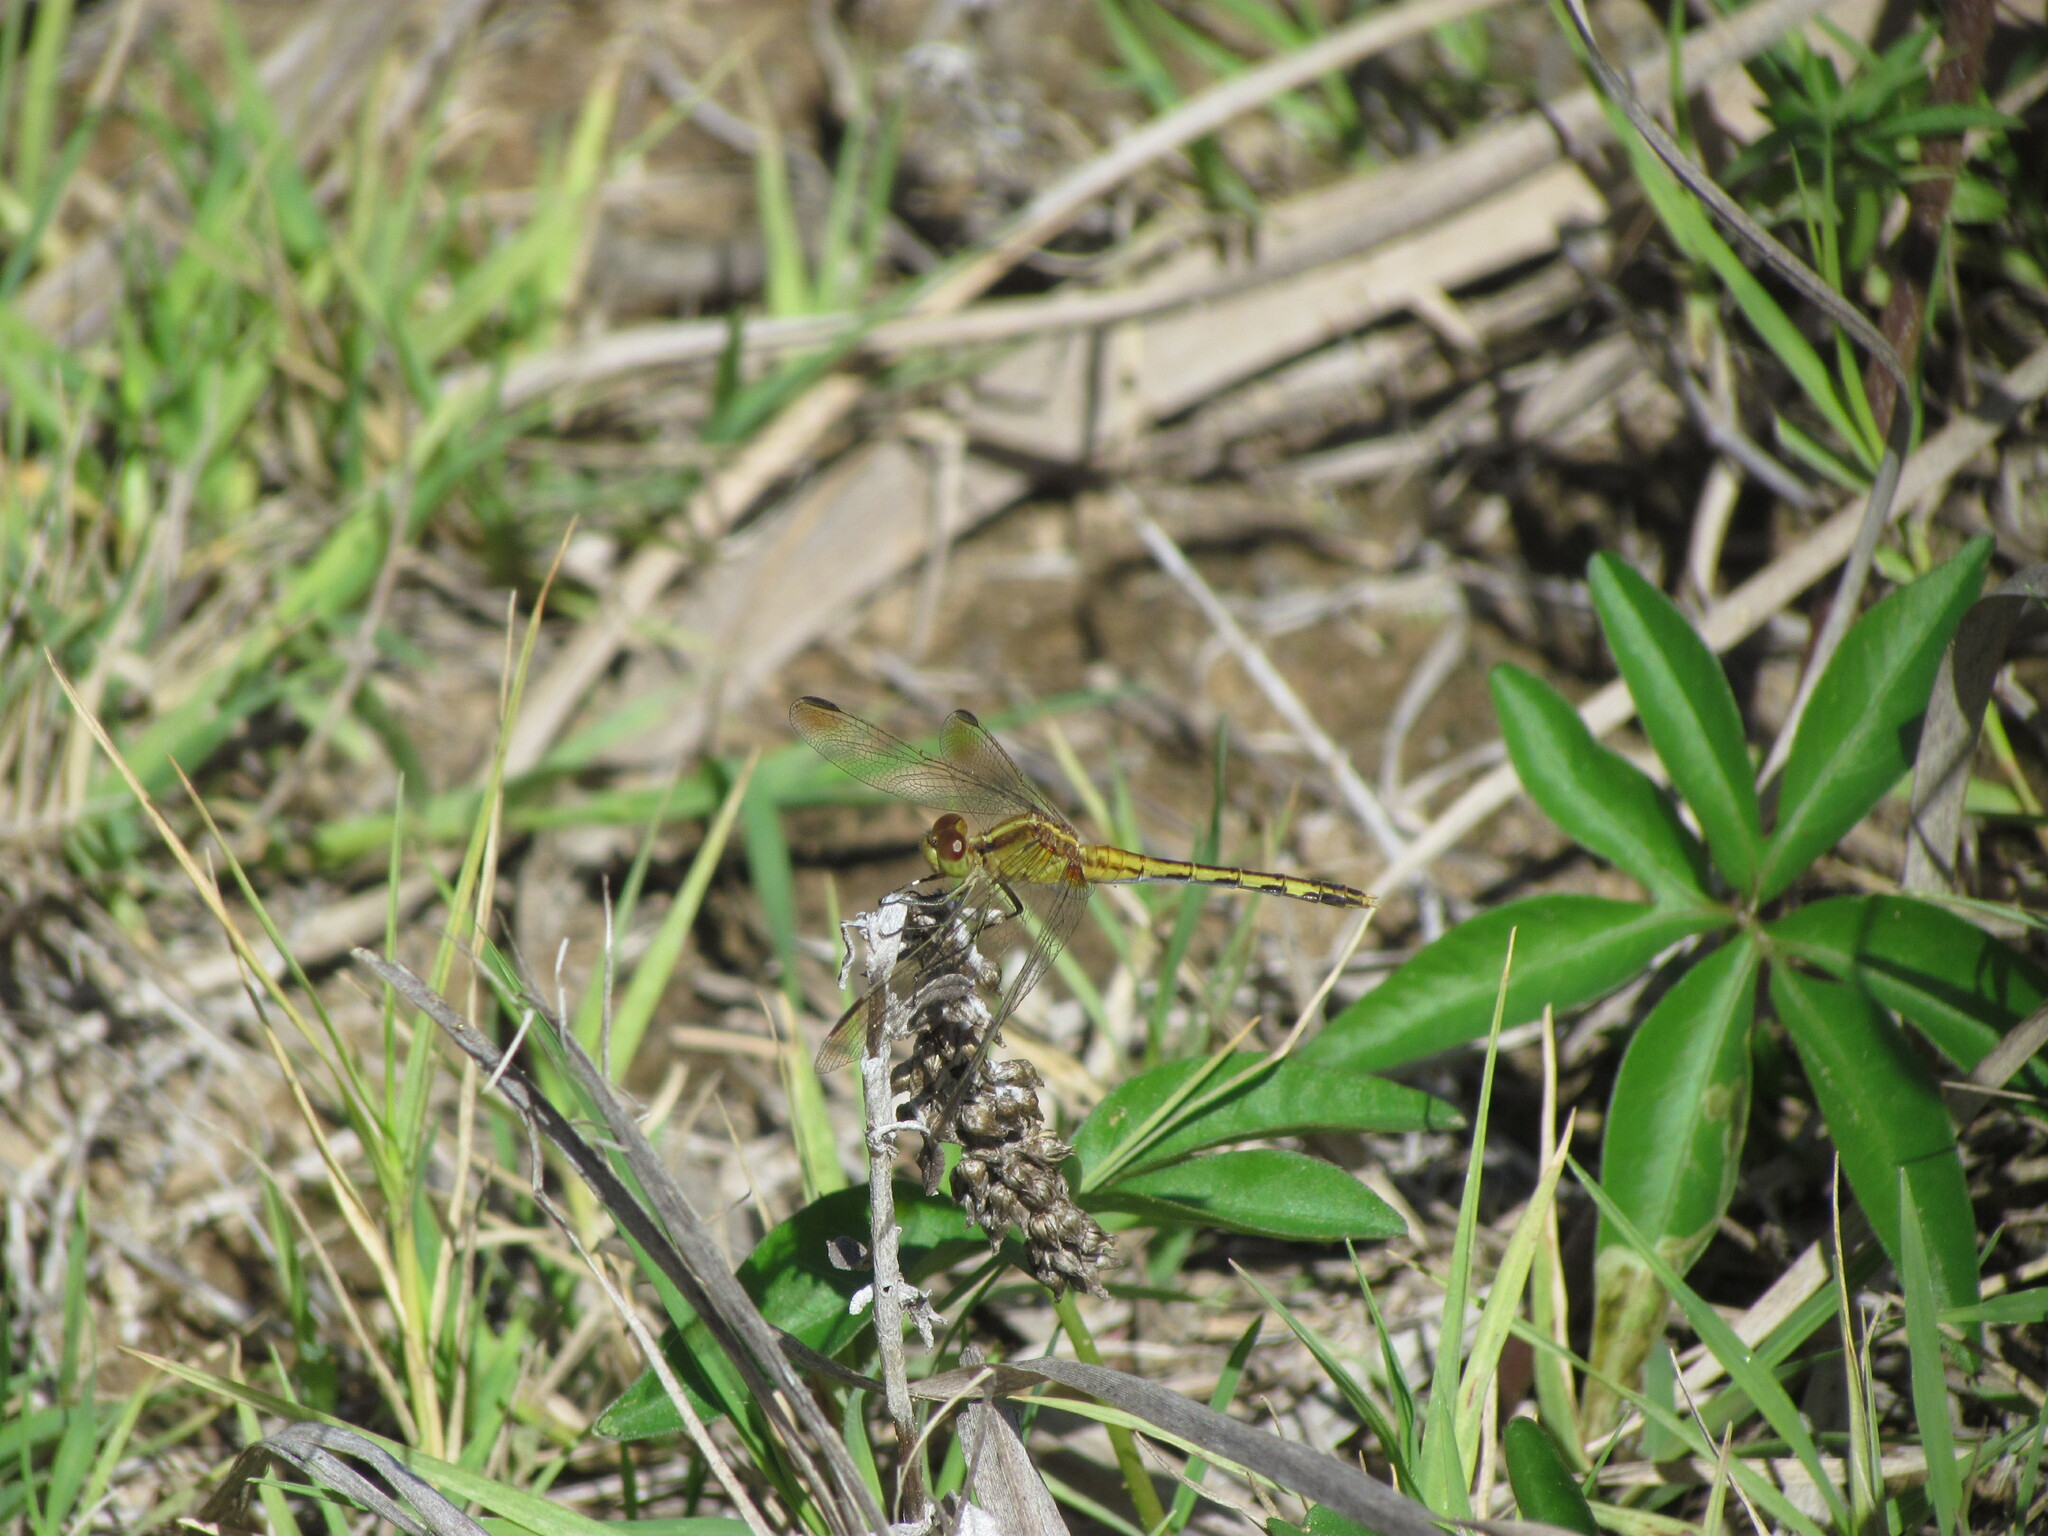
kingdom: Animalia
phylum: Arthropoda
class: Insecta
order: Odonata
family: Libellulidae
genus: Erythrodiplax
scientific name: Erythrodiplax nigricans
